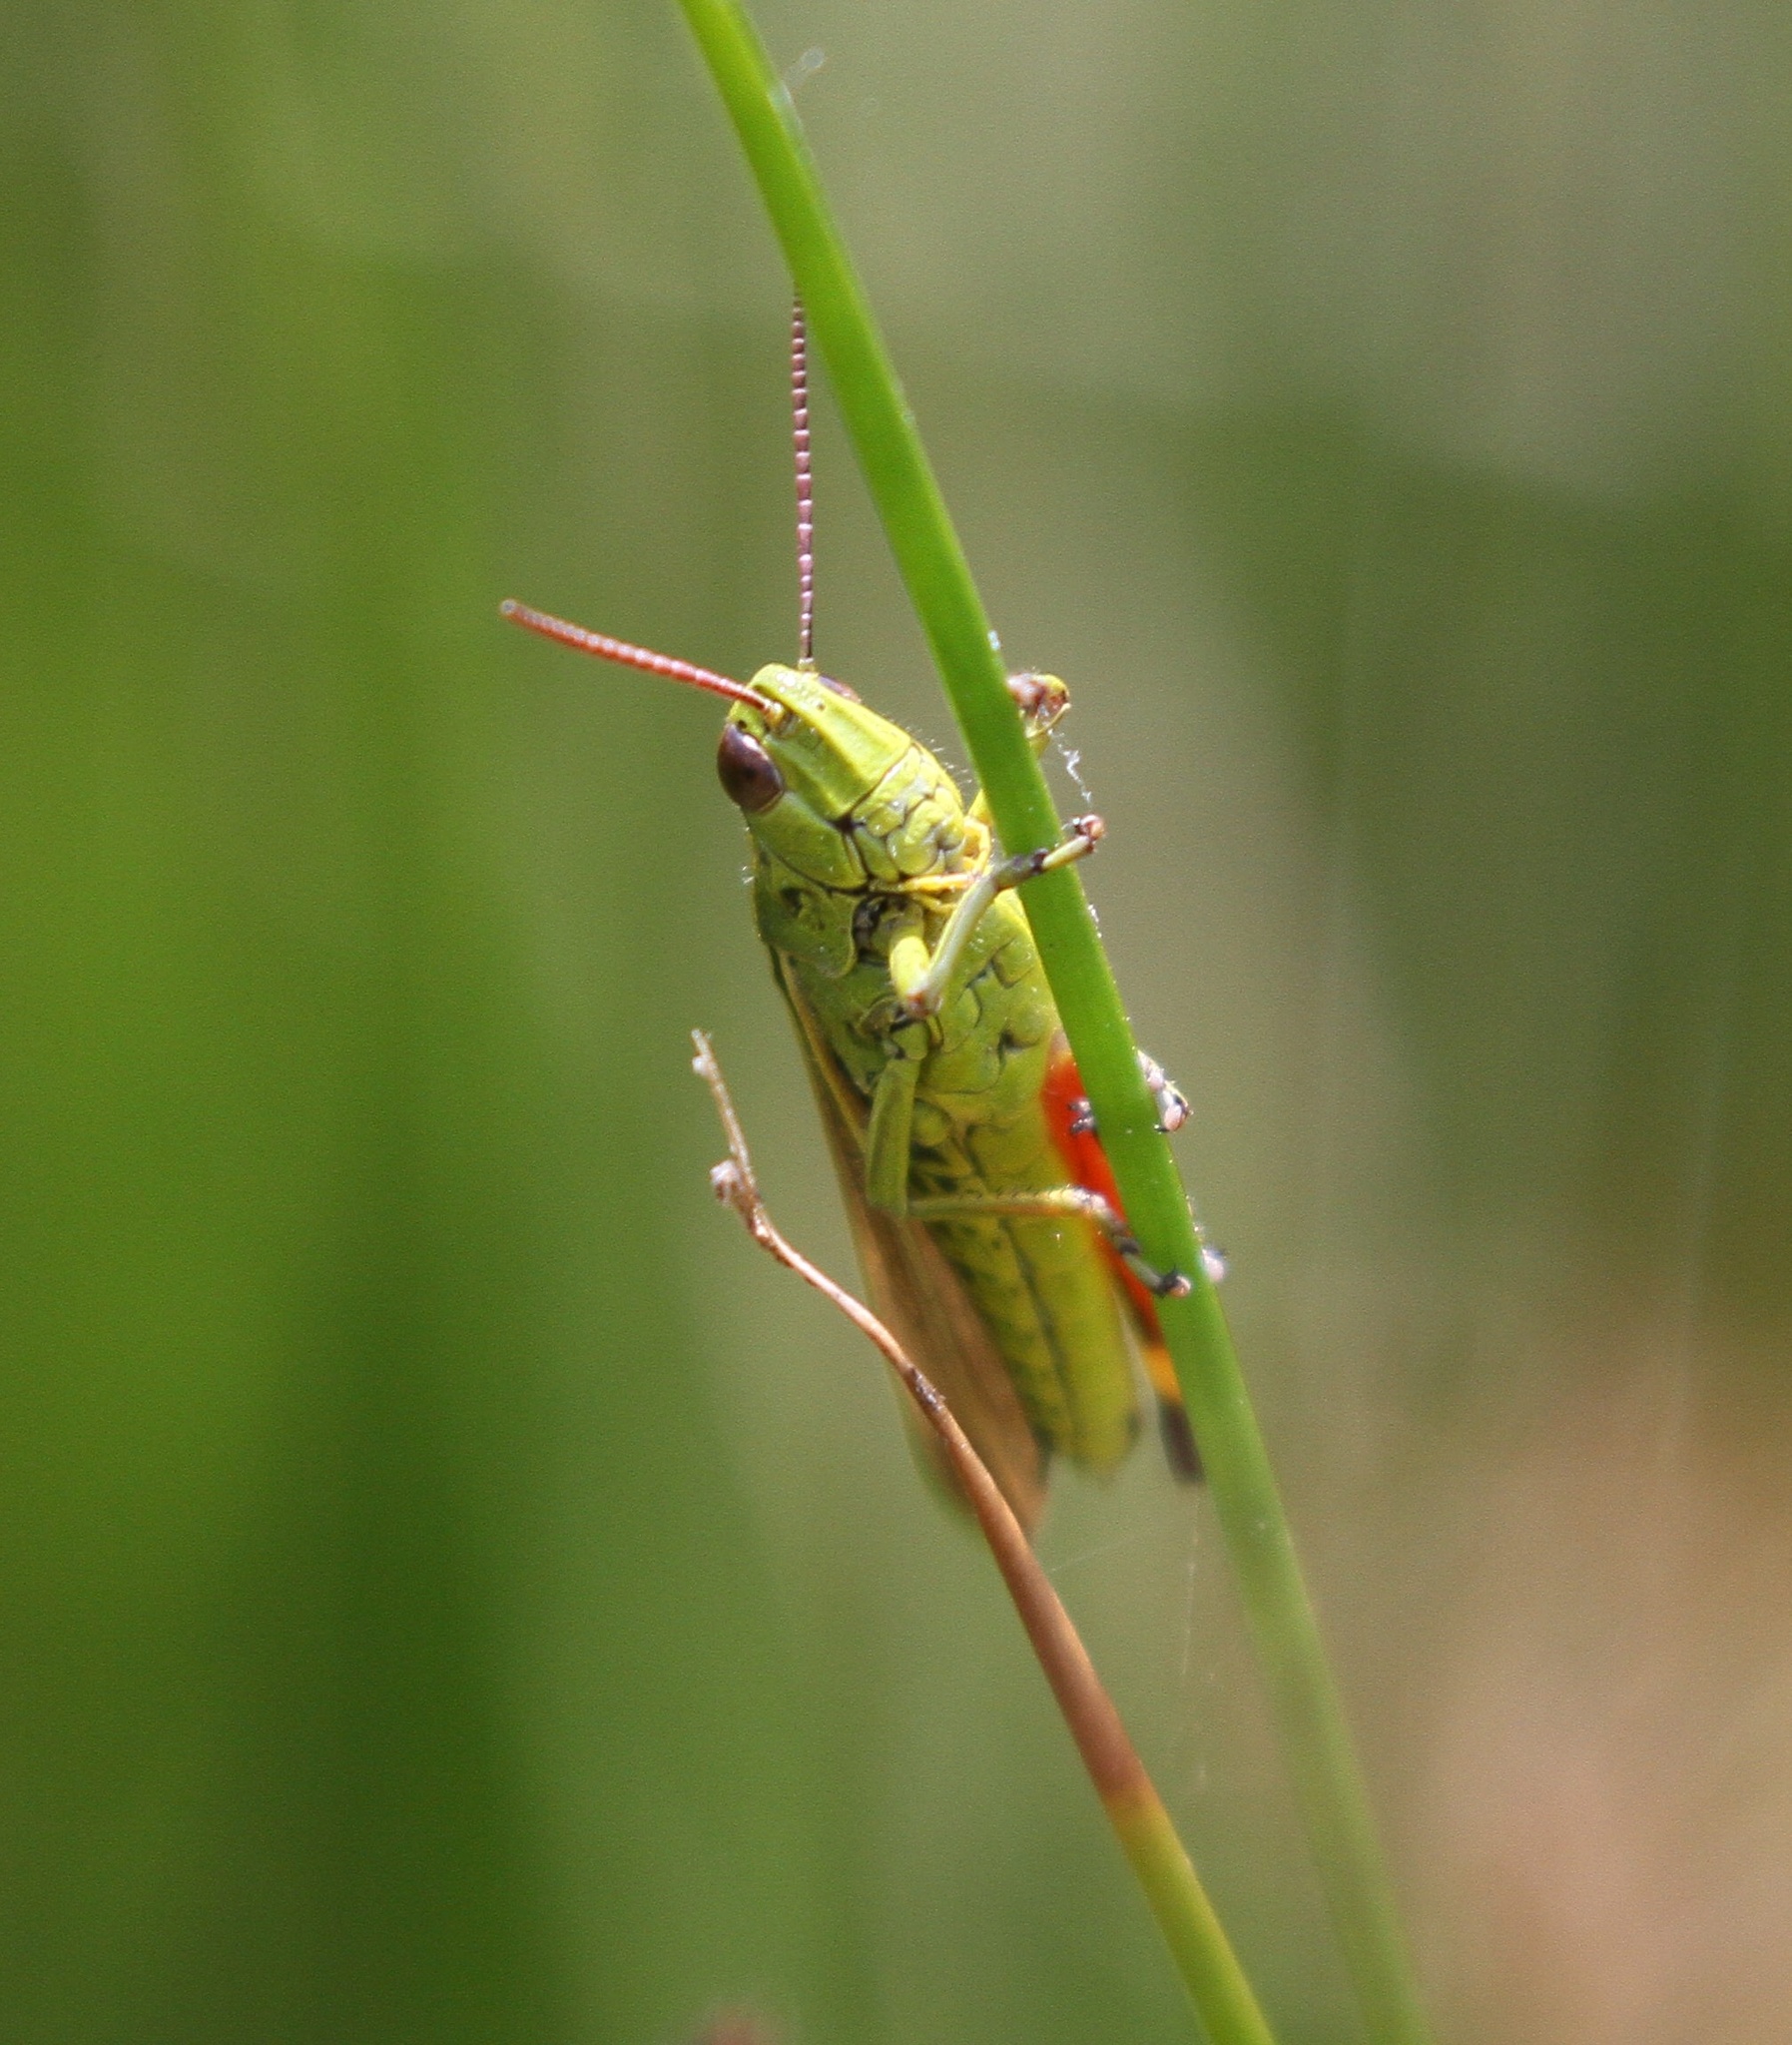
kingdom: Animalia
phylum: Arthropoda
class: Insecta
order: Orthoptera
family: Acrididae
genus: Stethophyma
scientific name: Stethophyma grossum
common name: Large marsh grasshopper
